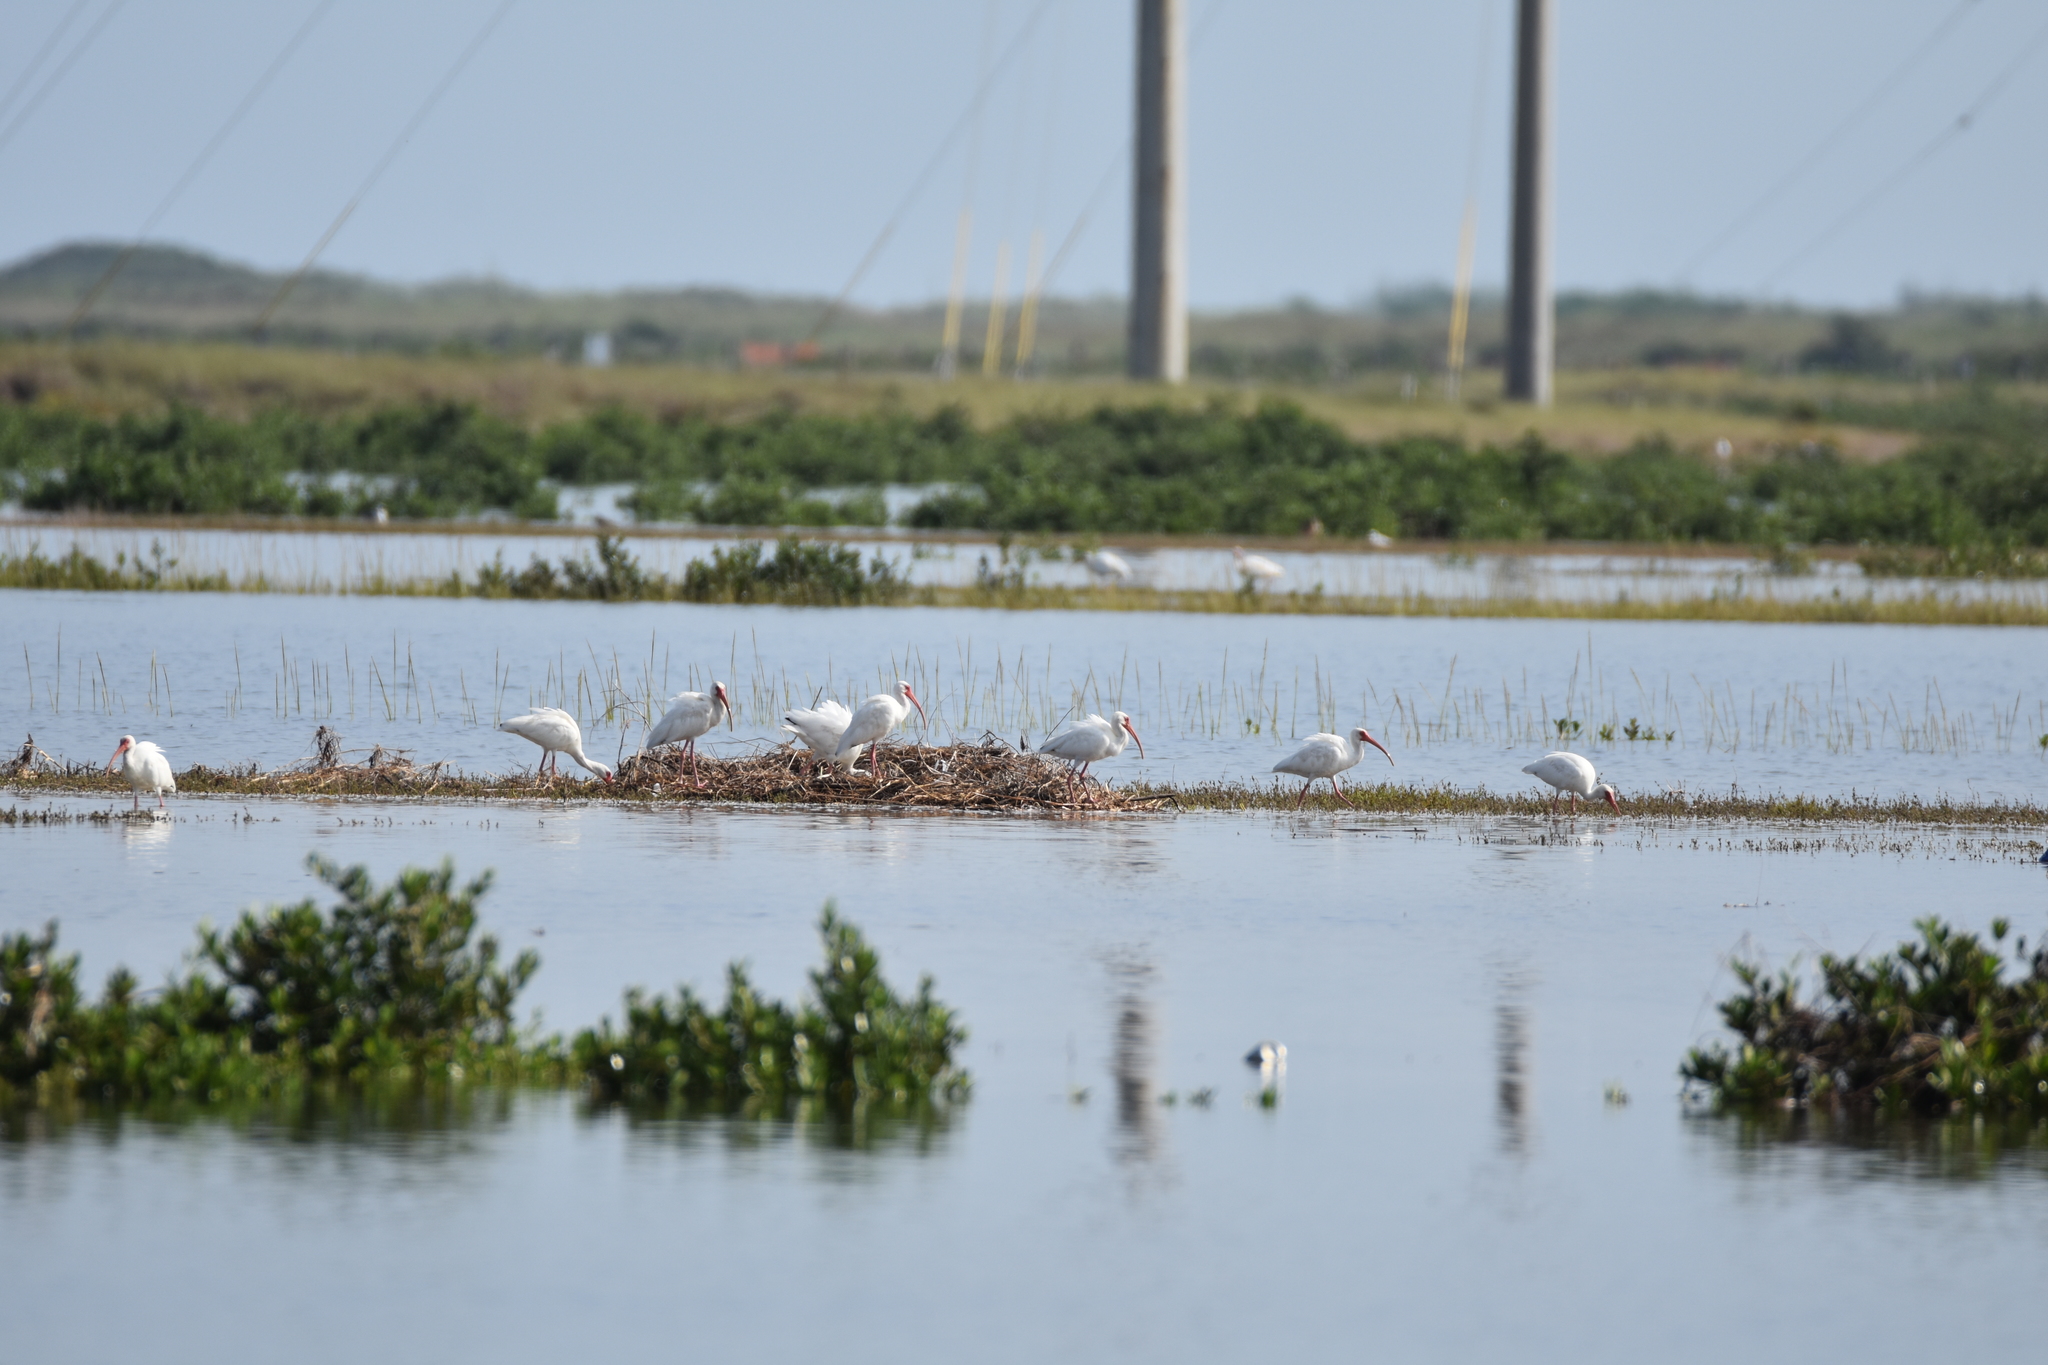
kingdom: Animalia
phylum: Chordata
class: Aves
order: Pelecaniformes
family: Threskiornithidae
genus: Eudocimus
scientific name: Eudocimus albus
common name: White ibis
